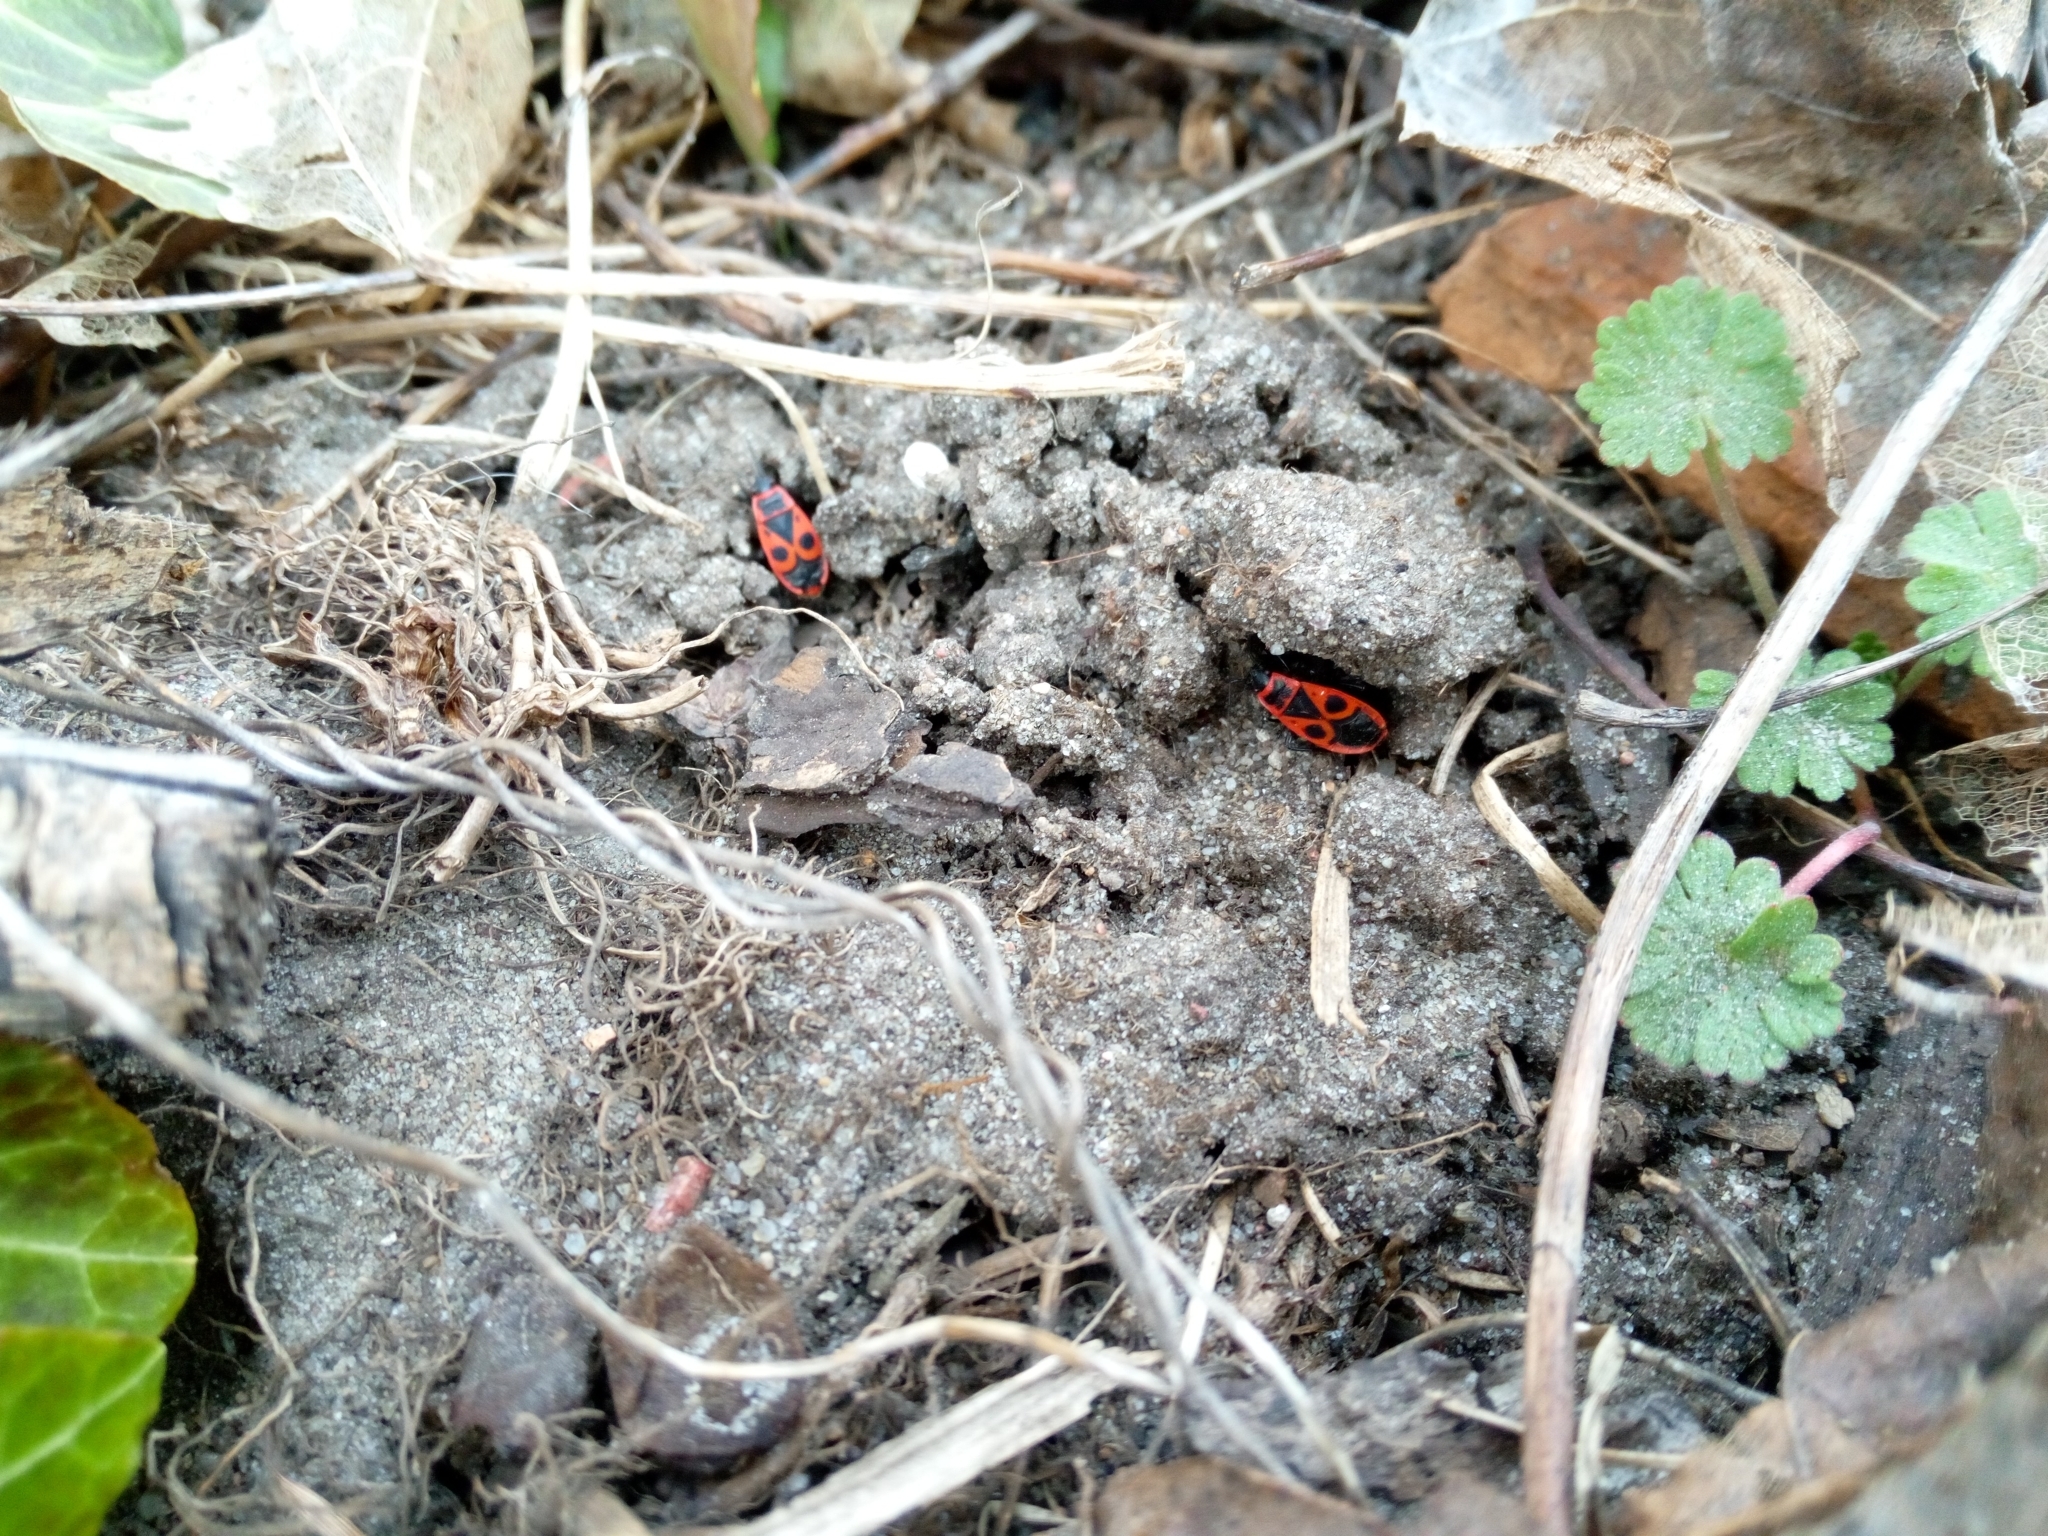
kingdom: Animalia
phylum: Arthropoda
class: Insecta
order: Hemiptera
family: Pyrrhocoridae
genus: Pyrrhocoris
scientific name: Pyrrhocoris apterus
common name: Firebug
